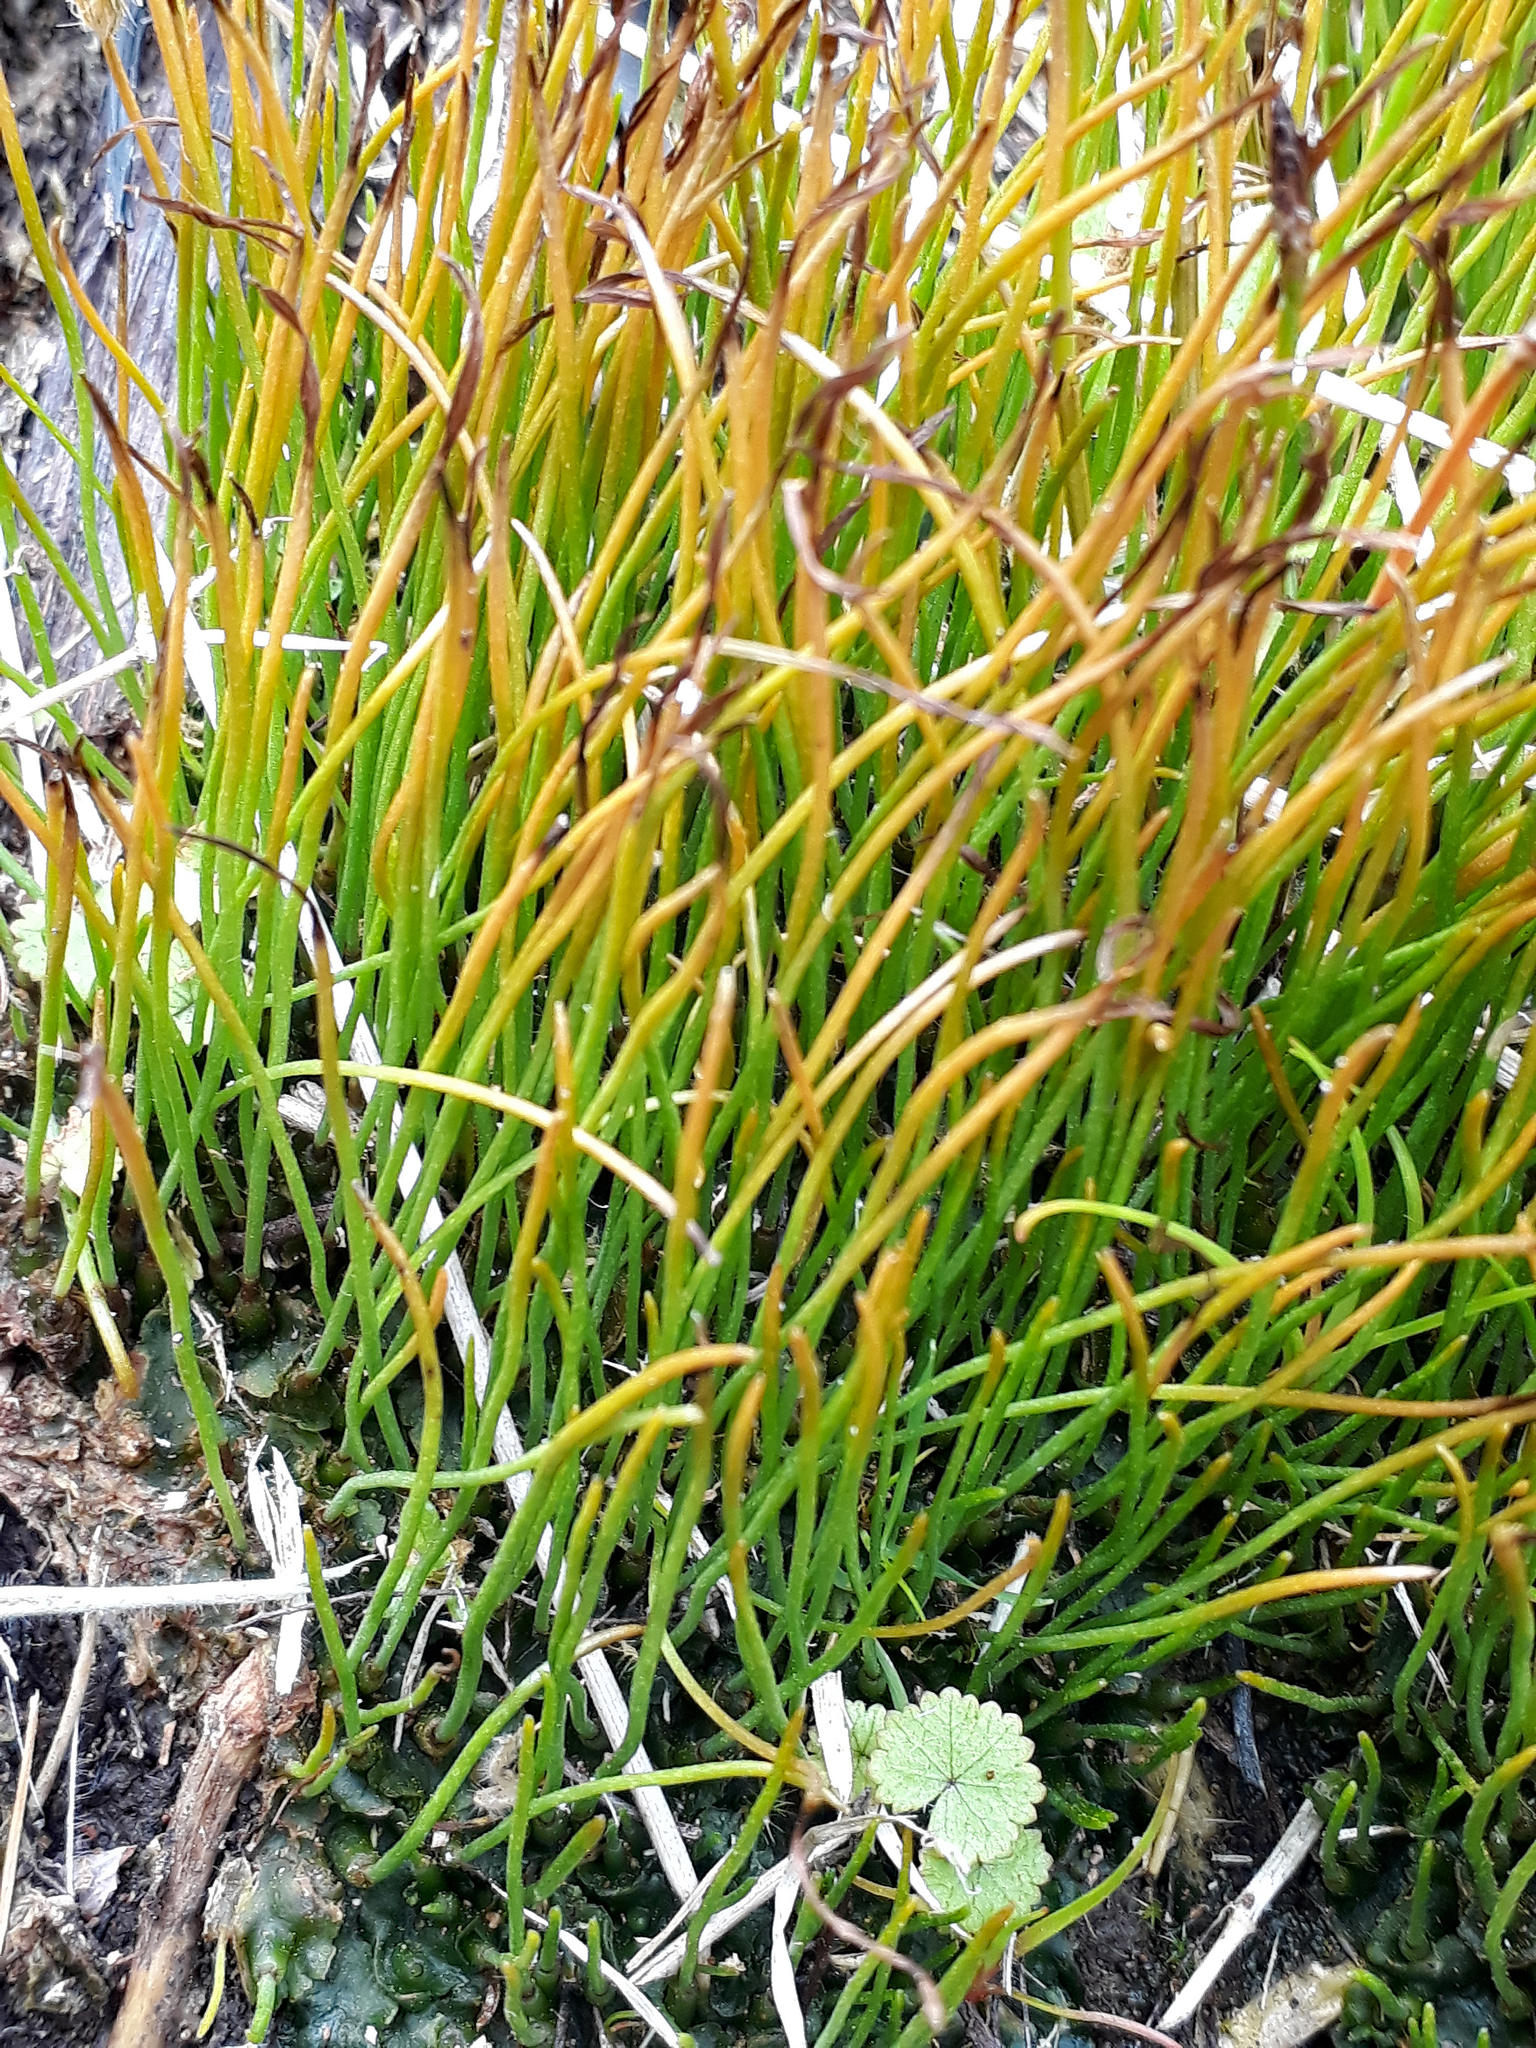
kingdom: Plantae
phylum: Anthocerotophyta
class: Anthocerotopsida
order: Notothyladales
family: Notothyladaceae
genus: Phaeoceros
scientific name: Phaeoceros carolinianus
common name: Carolina hornwort
